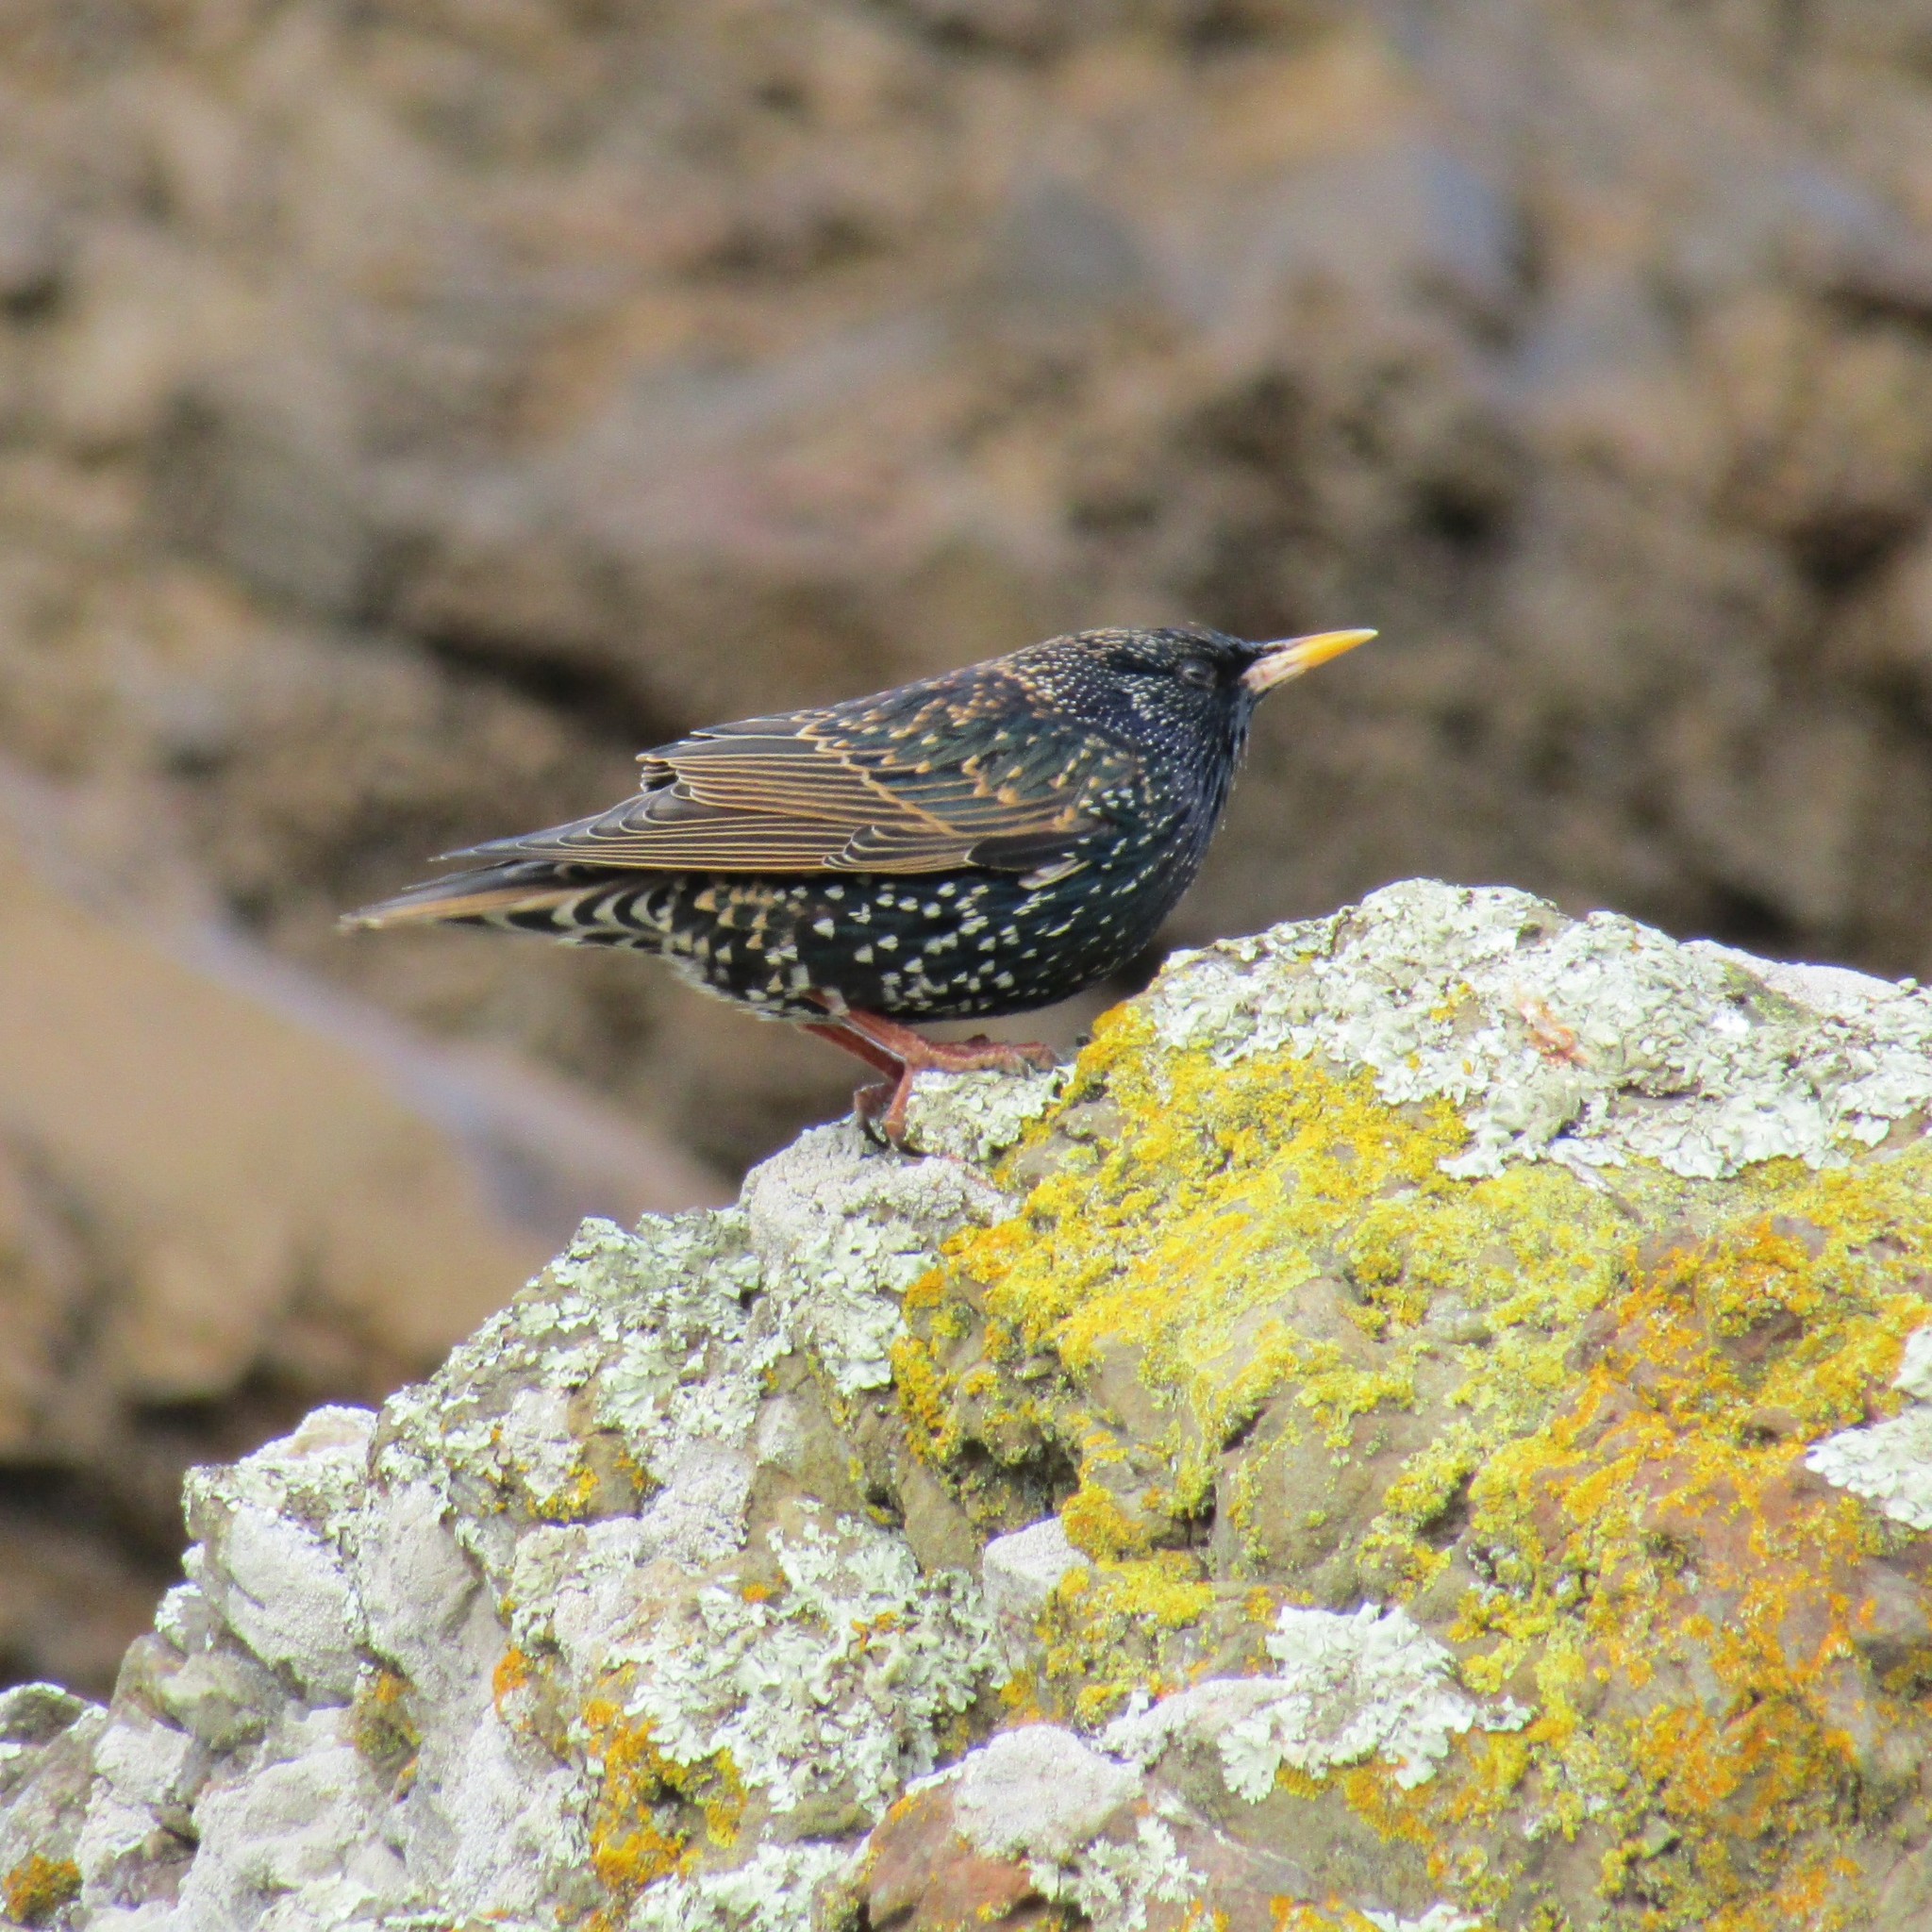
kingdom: Animalia
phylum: Chordata
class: Aves
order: Passeriformes
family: Sturnidae
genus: Sturnus
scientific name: Sturnus vulgaris
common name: Common starling
